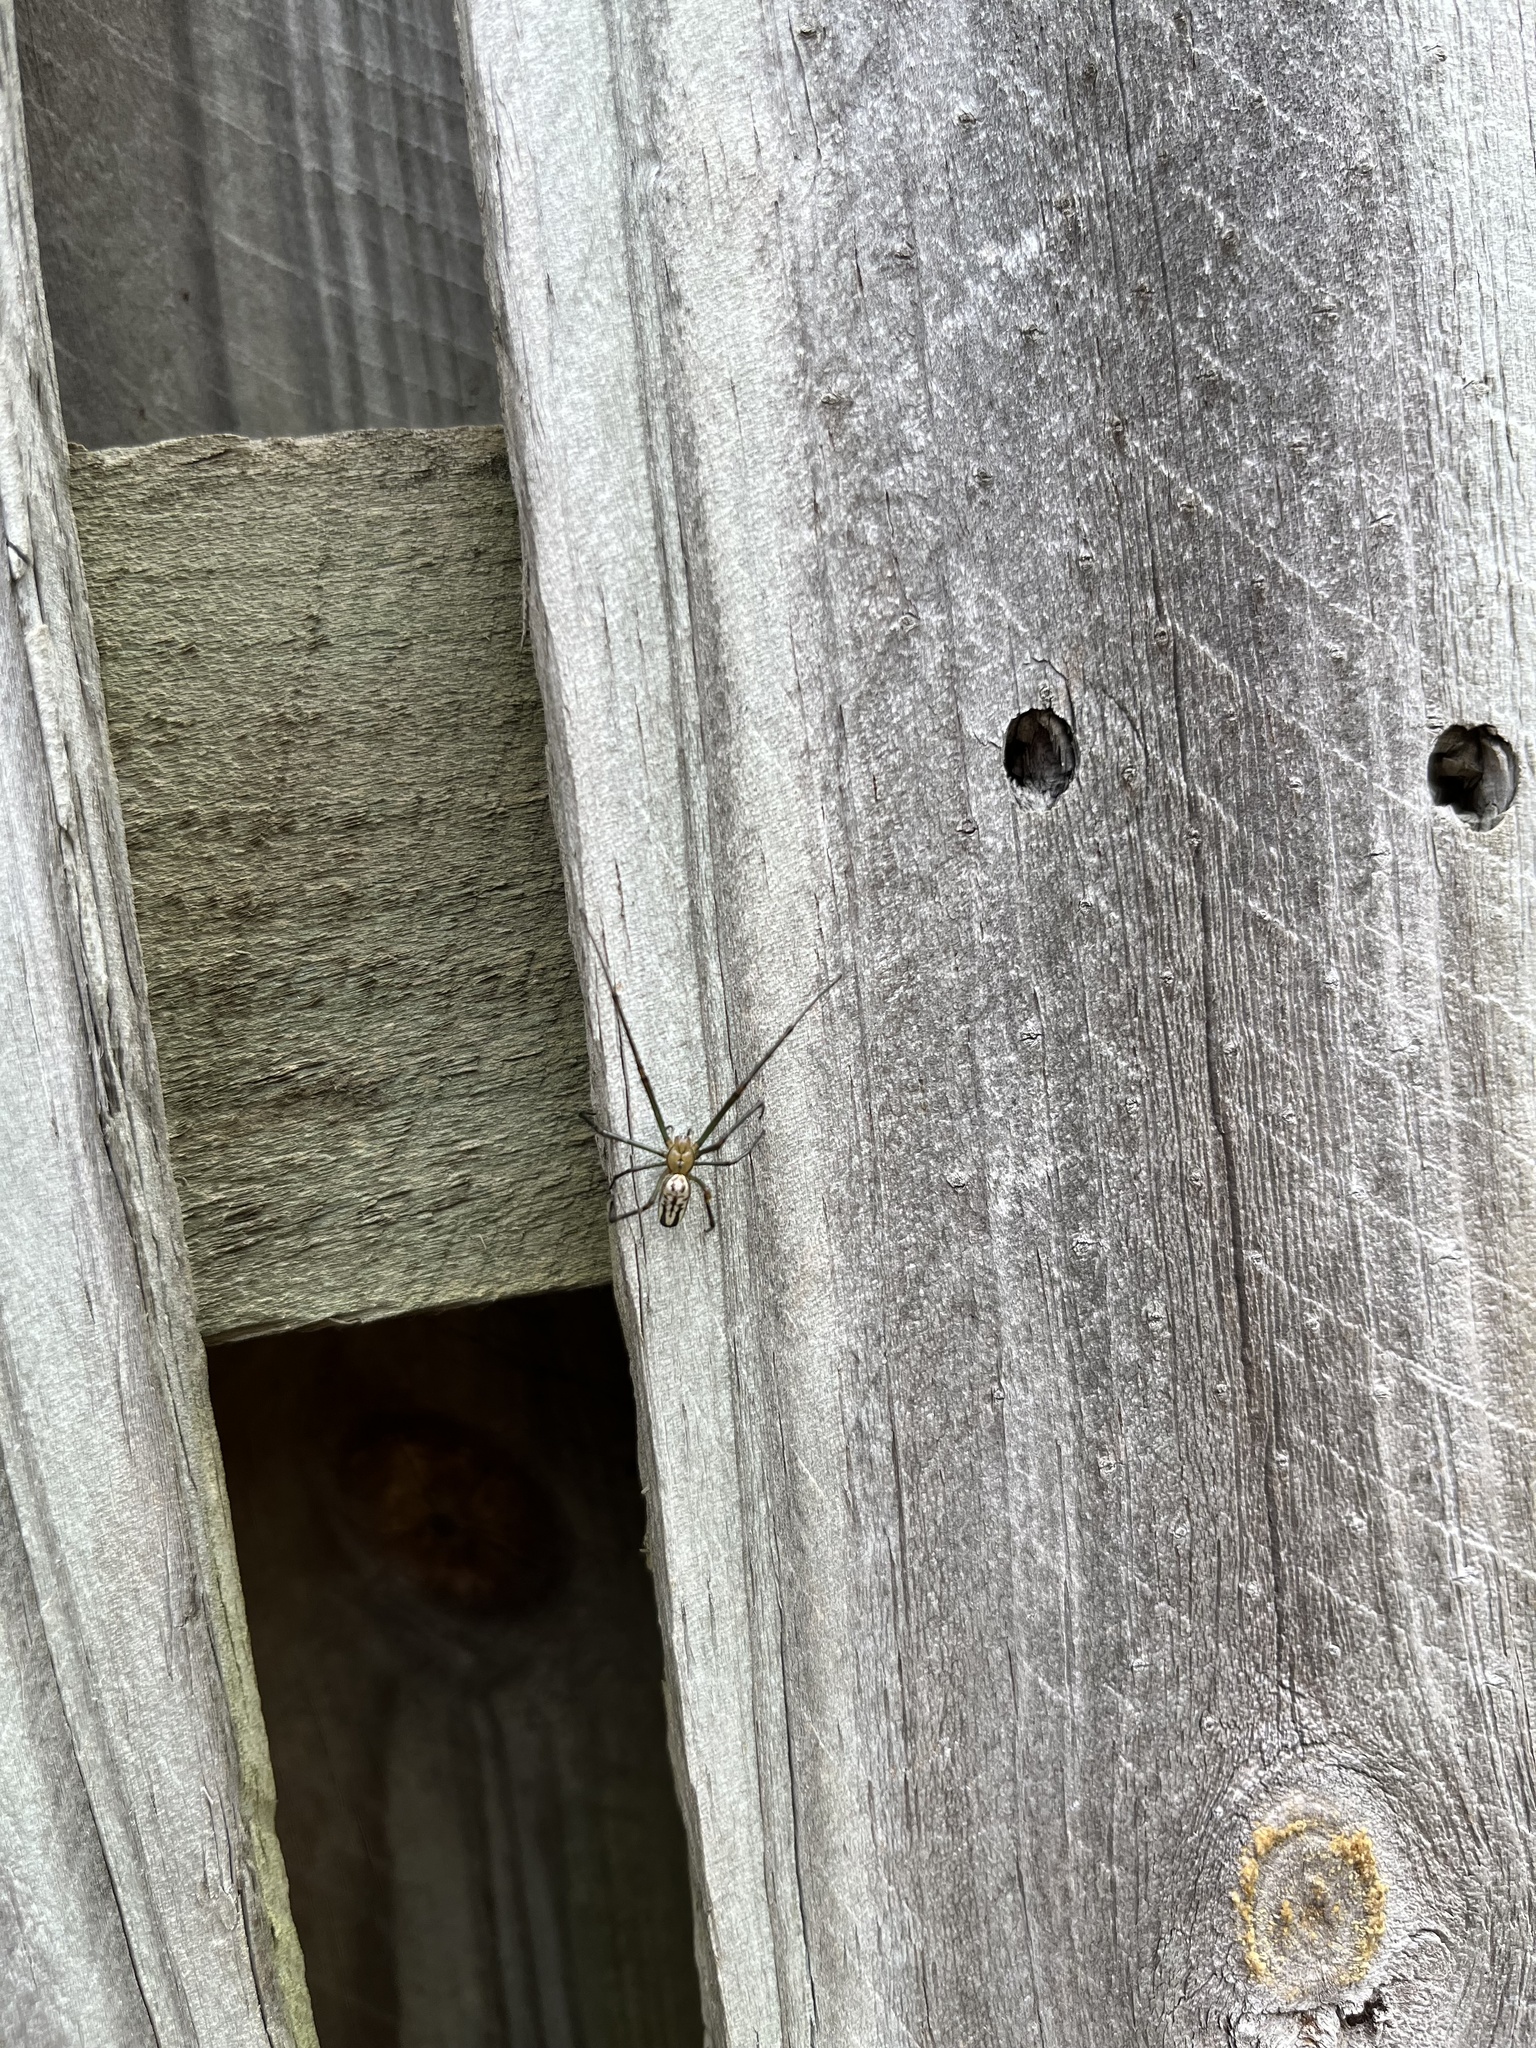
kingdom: Animalia
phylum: Arthropoda
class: Arachnida
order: Araneae
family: Tetragnathidae
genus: Leucauge
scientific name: Leucauge dromedaria
